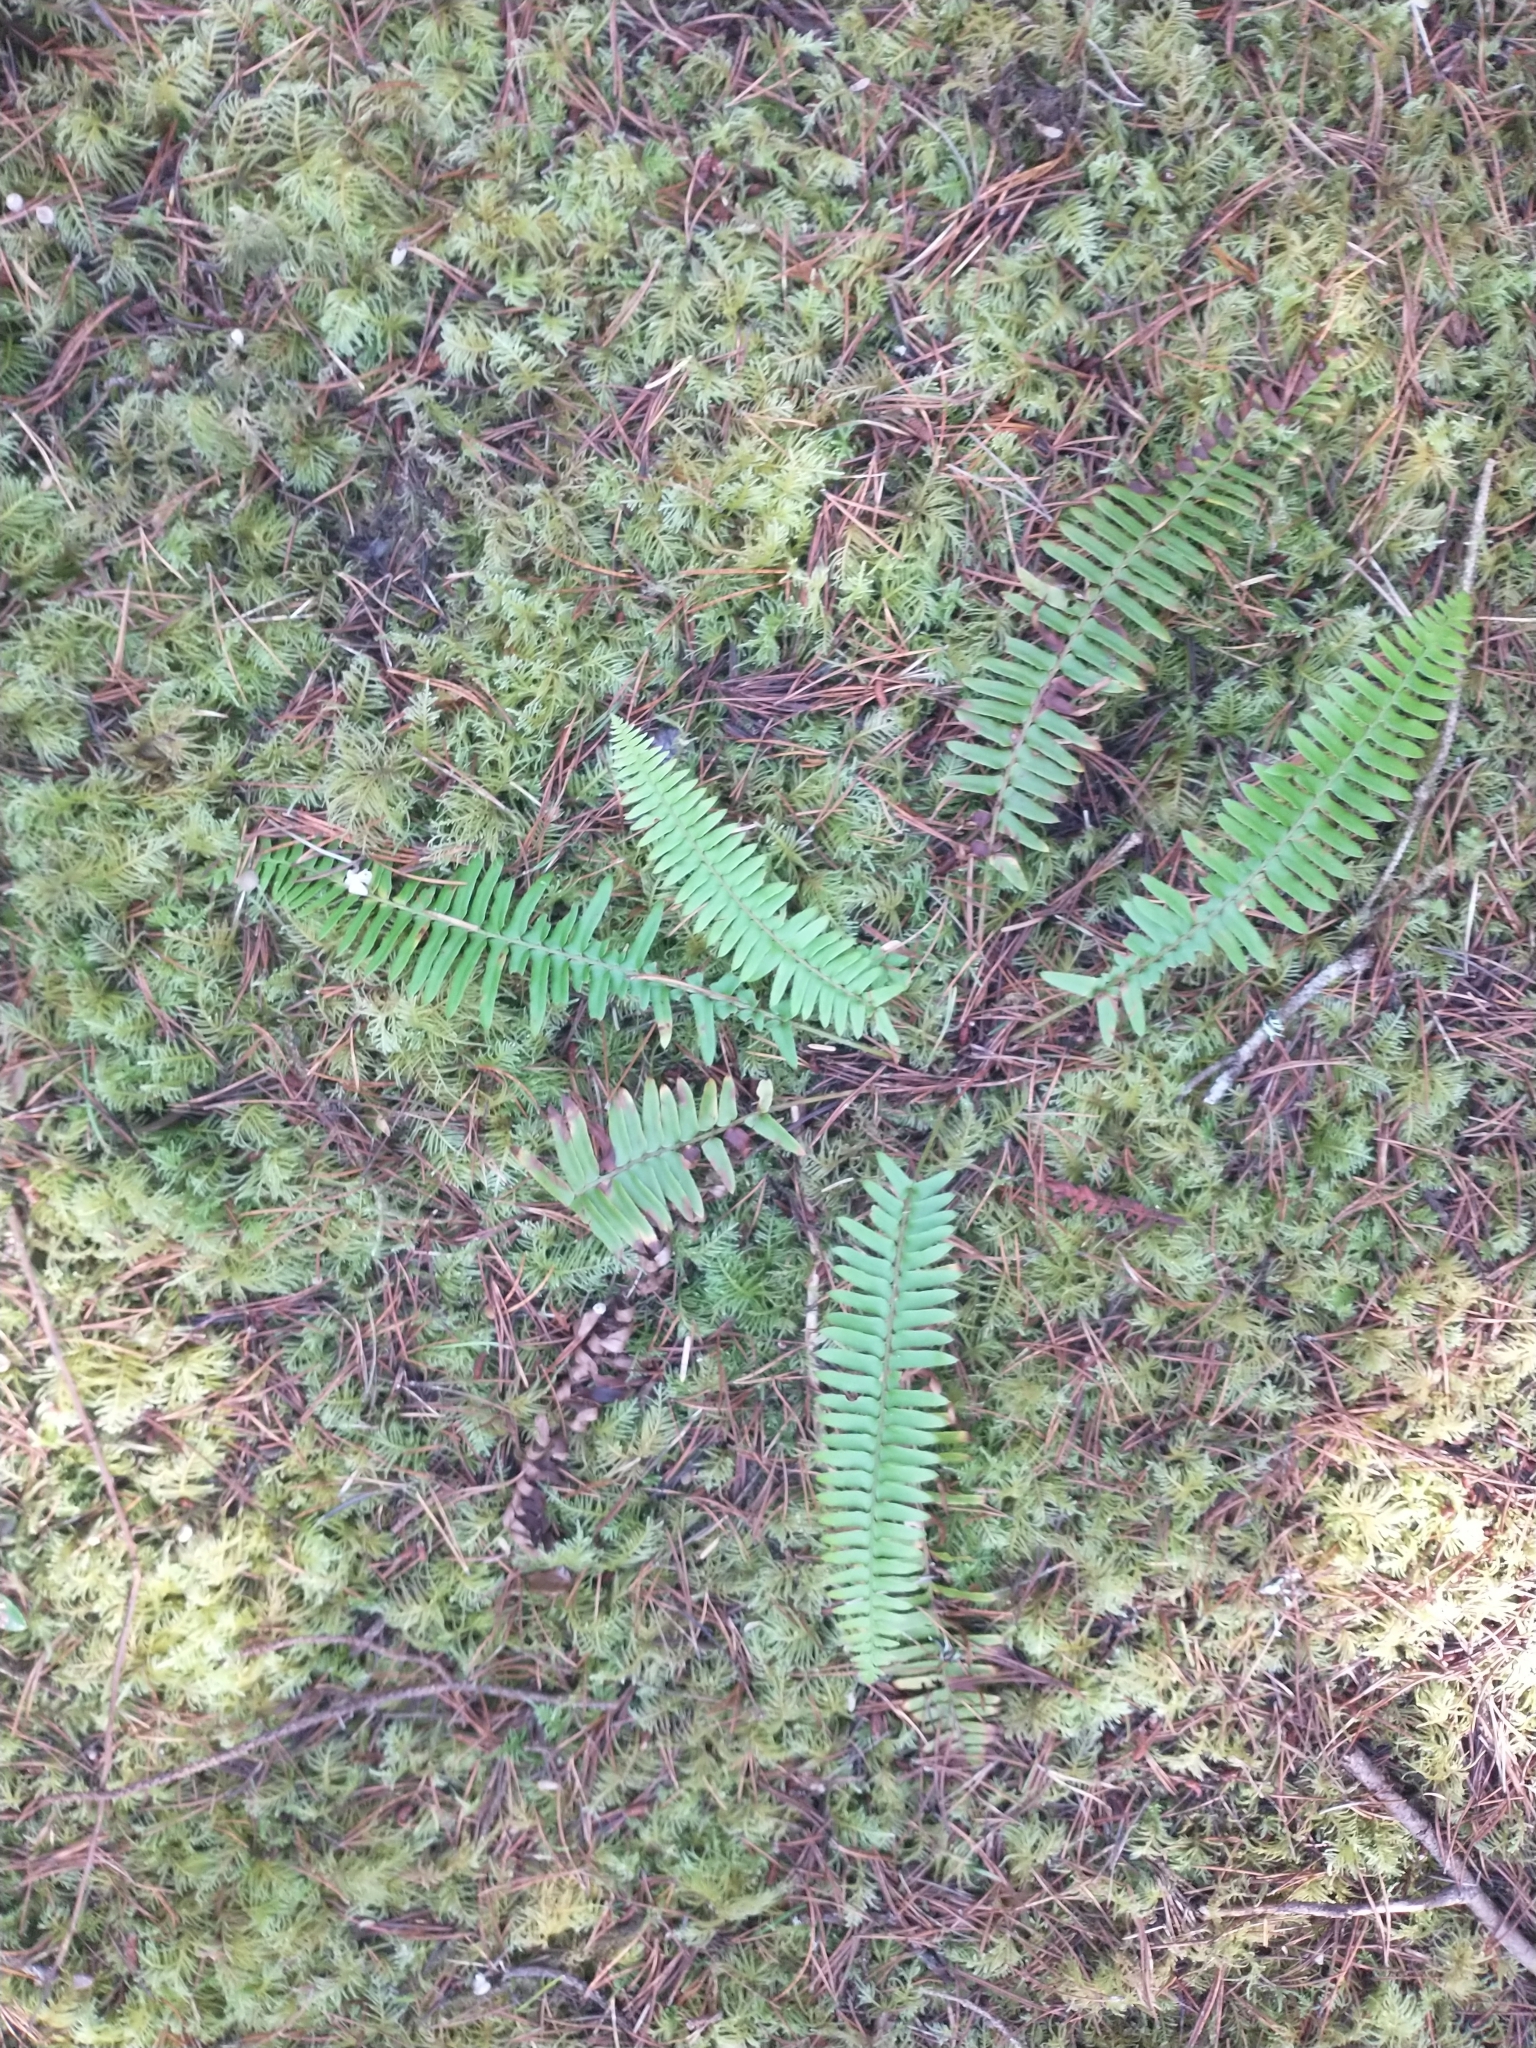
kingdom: Plantae
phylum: Tracheophyta
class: Polypodiopsida
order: Polypodiales
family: Dryopteridaceae
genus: Polystichum
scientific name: Polystichum munitum
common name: Western sword-fern
